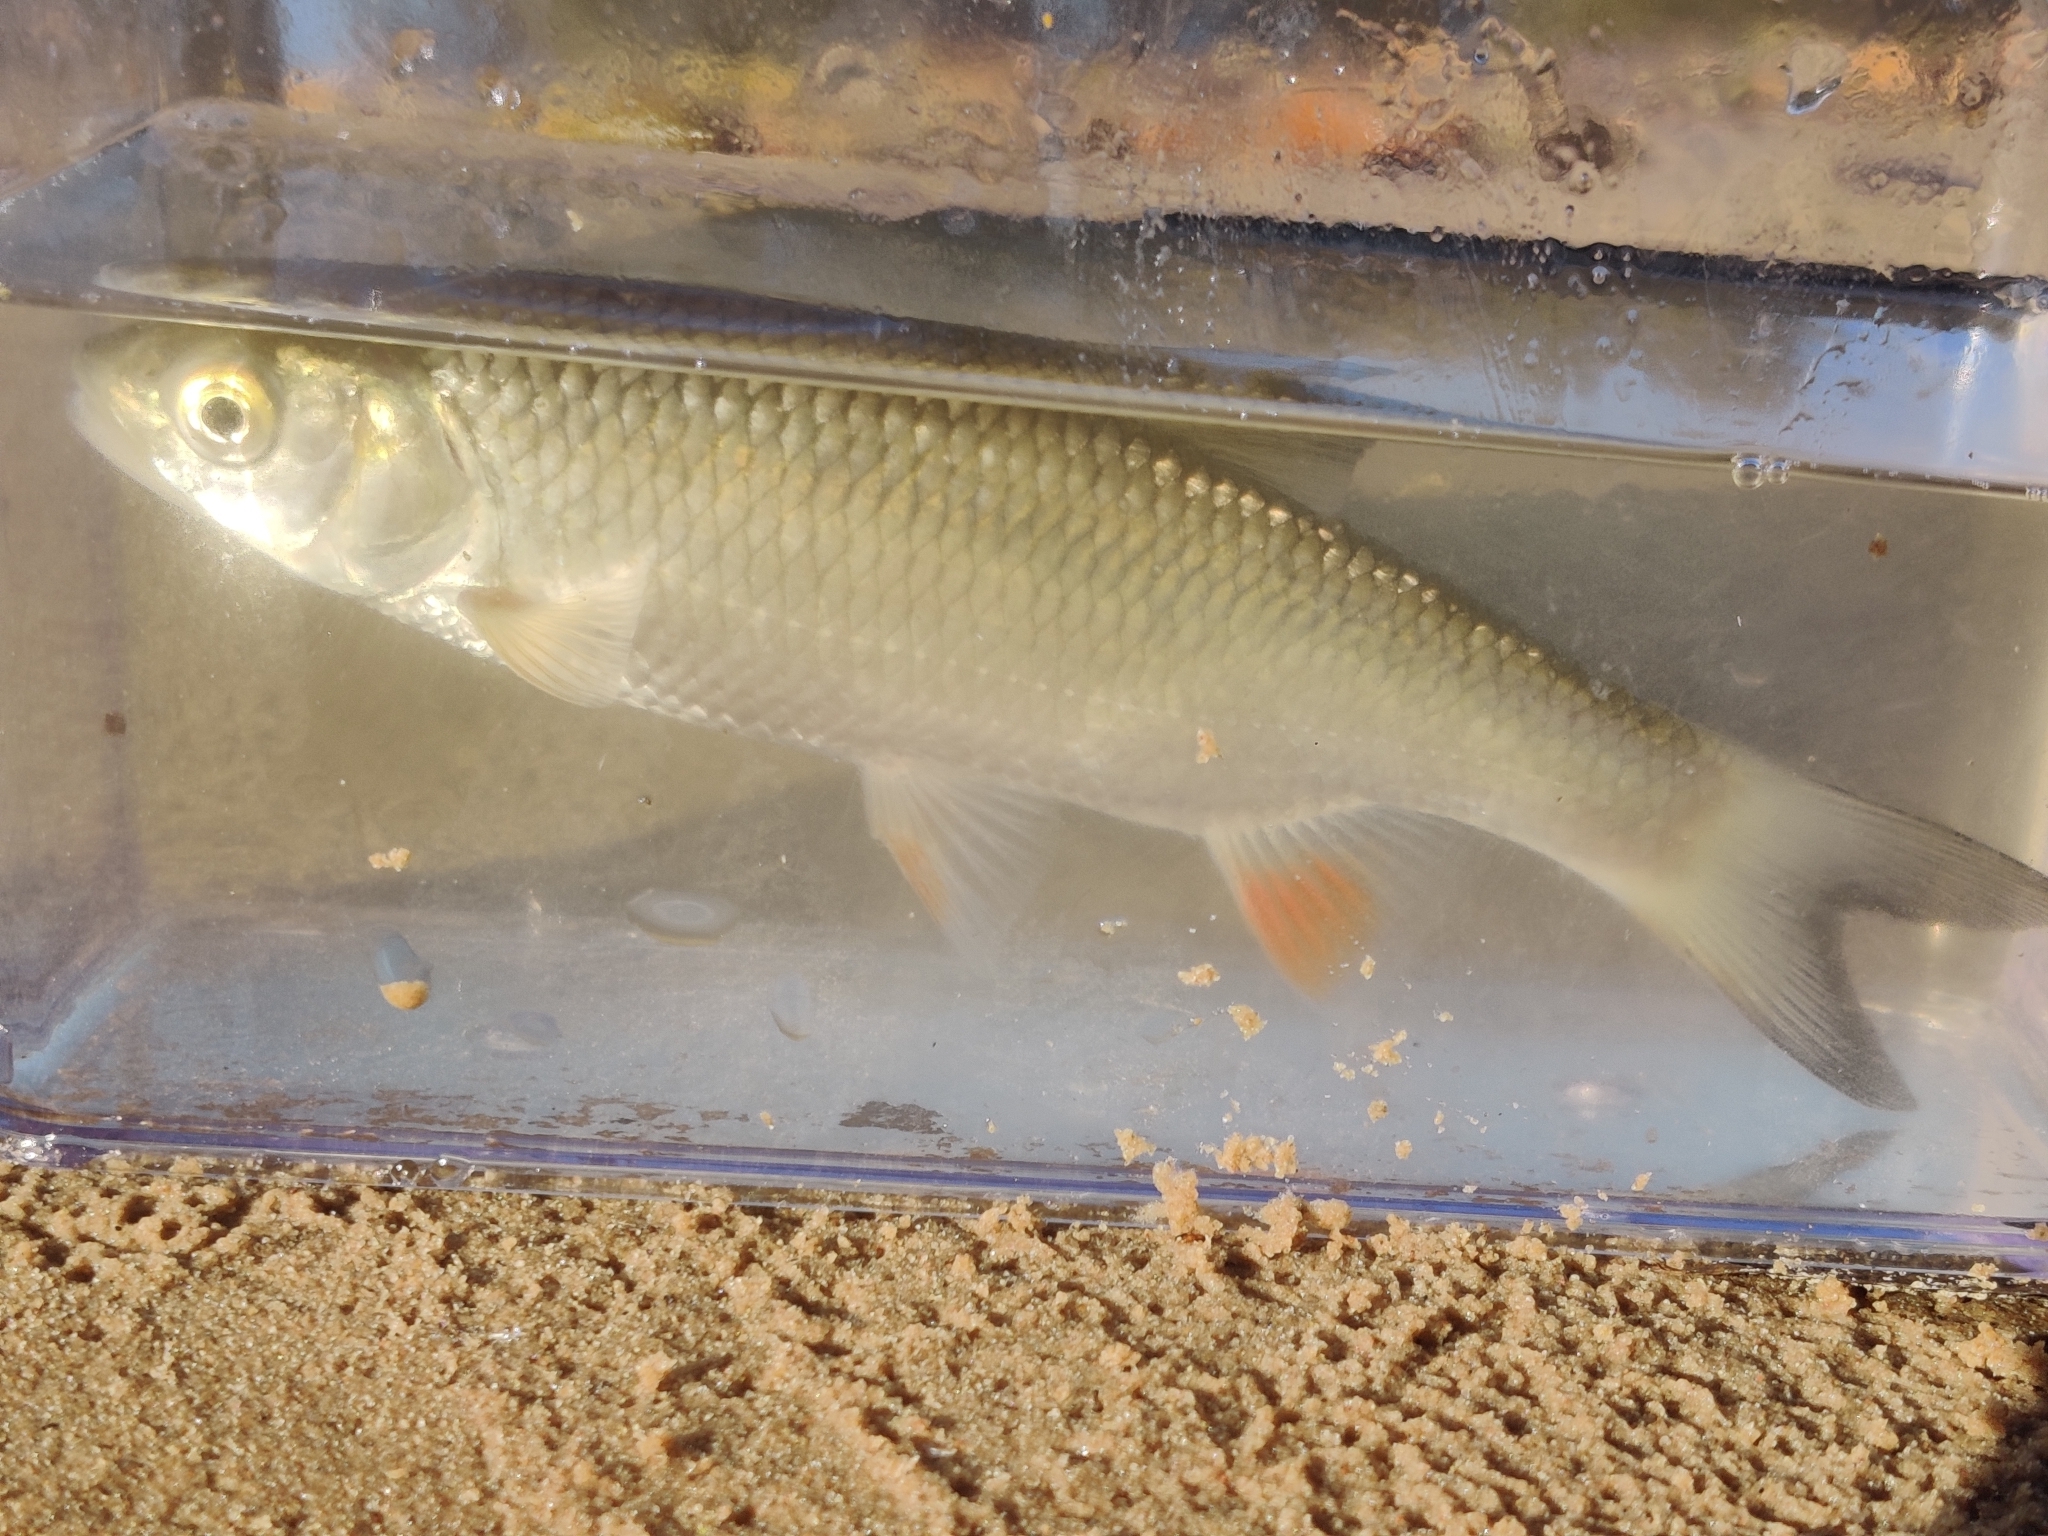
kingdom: Animalia
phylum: Chordata
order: Cypriniformes
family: Cyprinidae
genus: Squalius
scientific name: Squalius cephalus
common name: Chub
